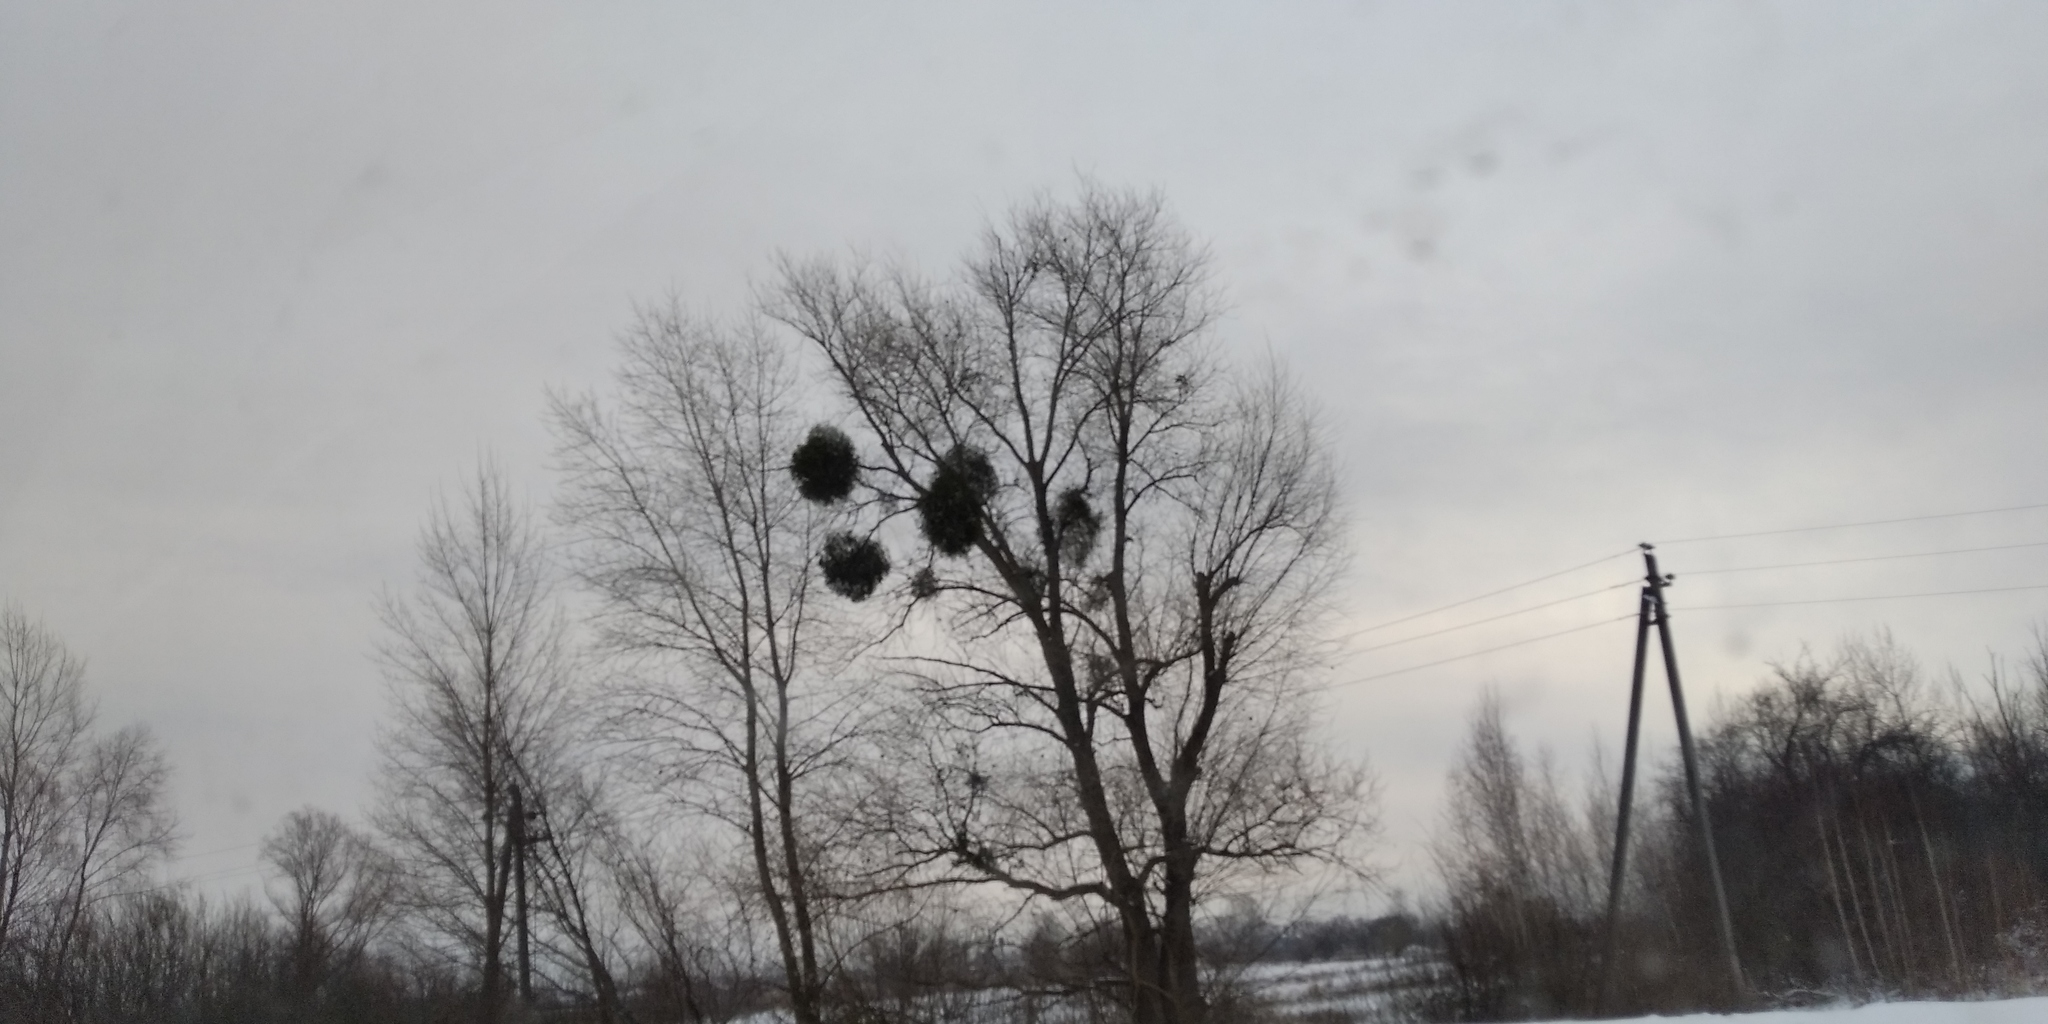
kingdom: Plantae
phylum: Tracheophyta
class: Magnoliopsida
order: Santalales
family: Viscaceae
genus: Viscum
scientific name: Viscum album
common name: Mistletoe
